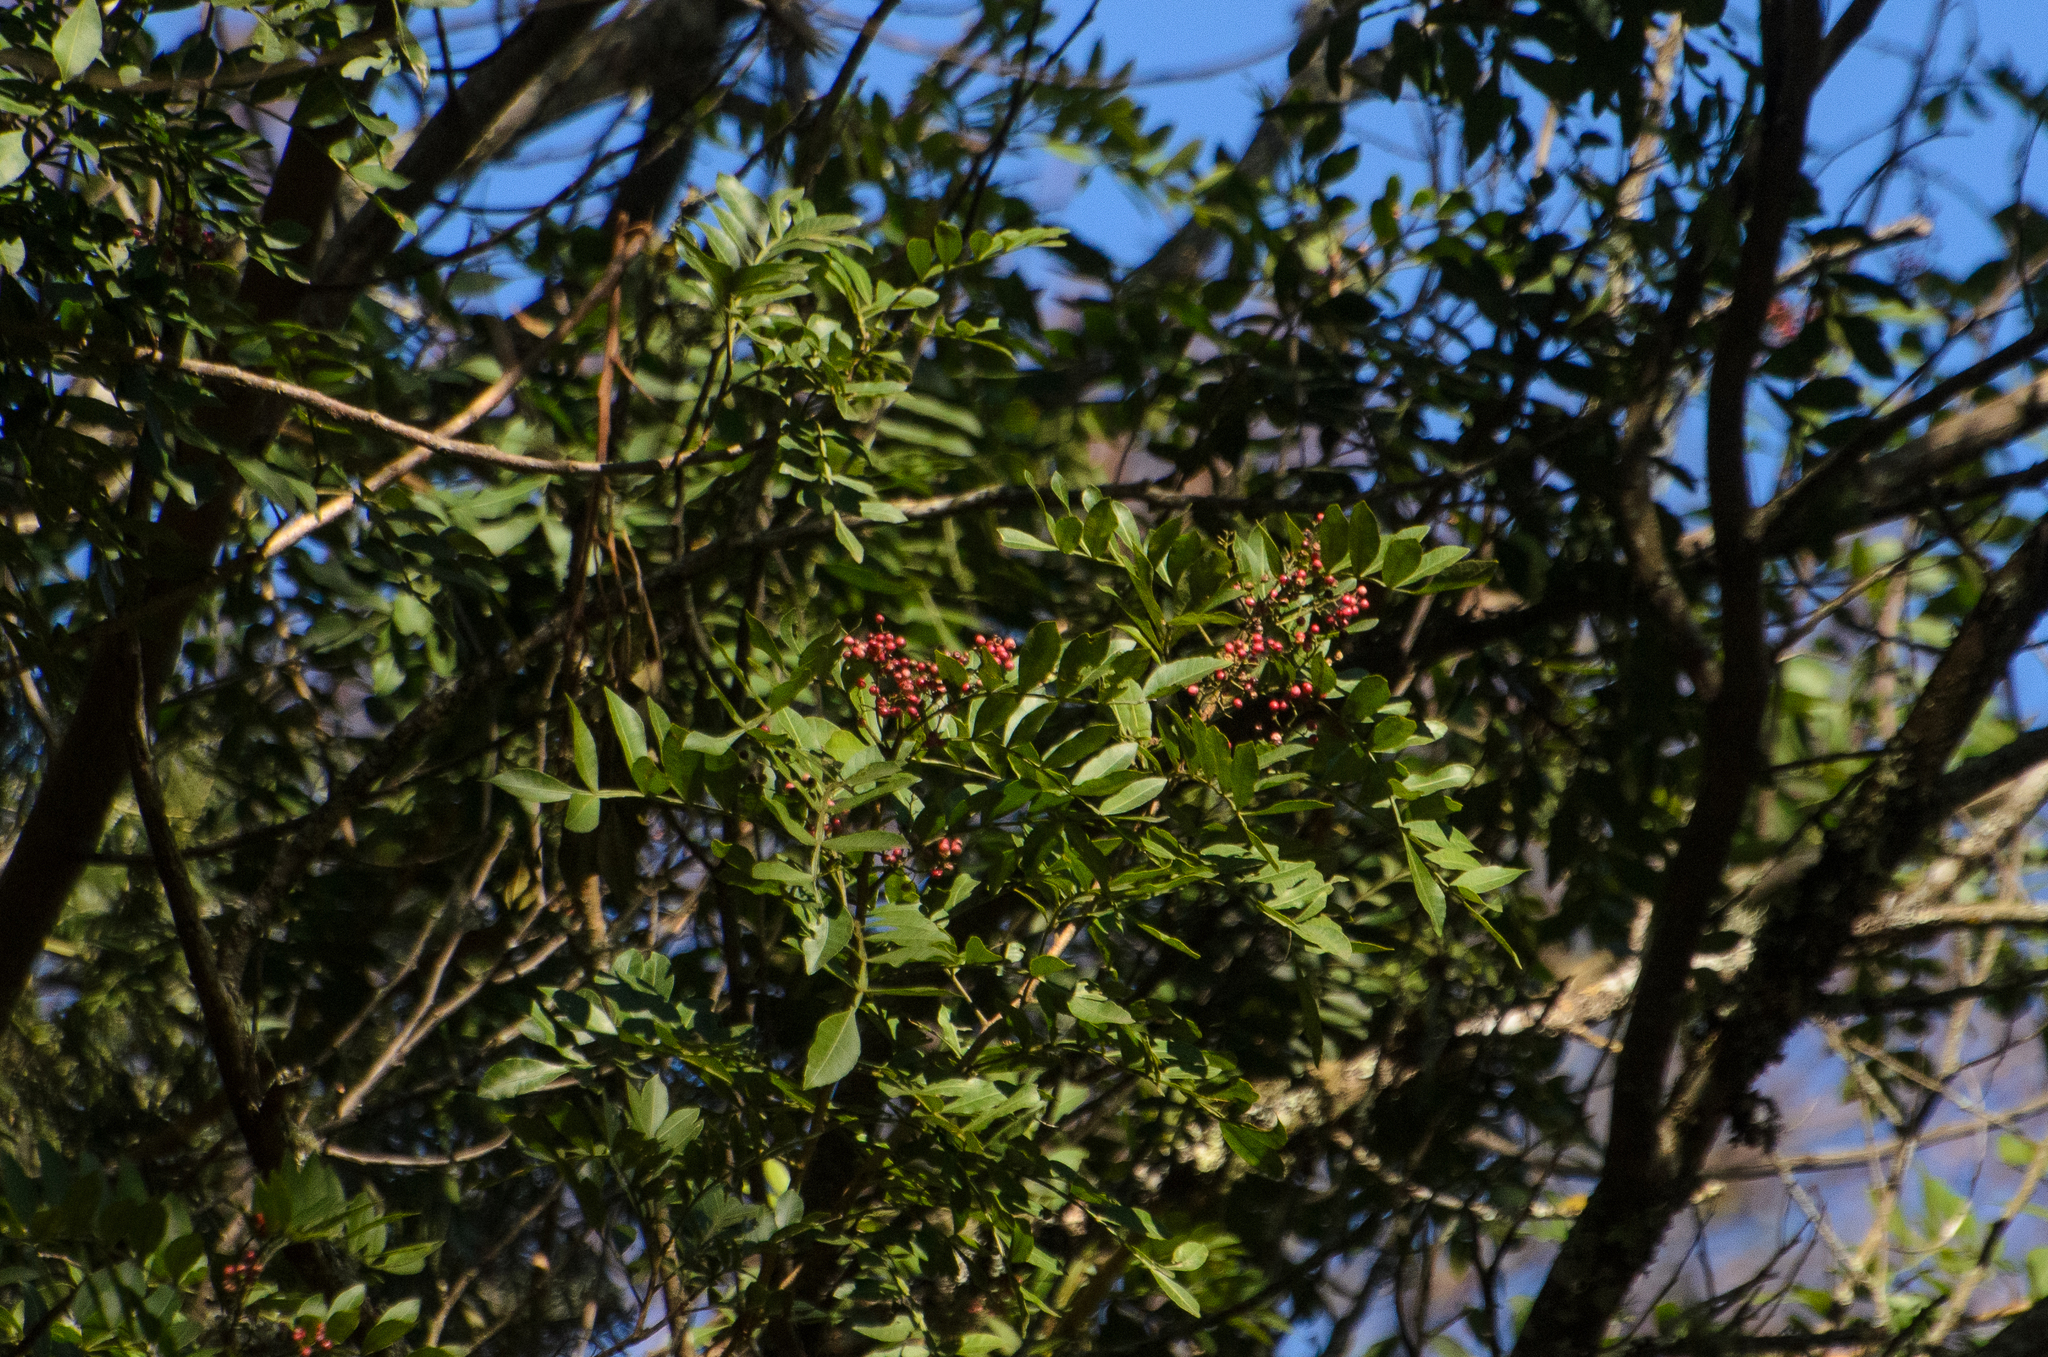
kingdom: Plantae
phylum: Tracheophyta
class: Magnoliopsida
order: Sapindales
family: Anacardiaceae
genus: Schinus
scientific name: Schinus terebinthifolia
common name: Brazilian peppertree
